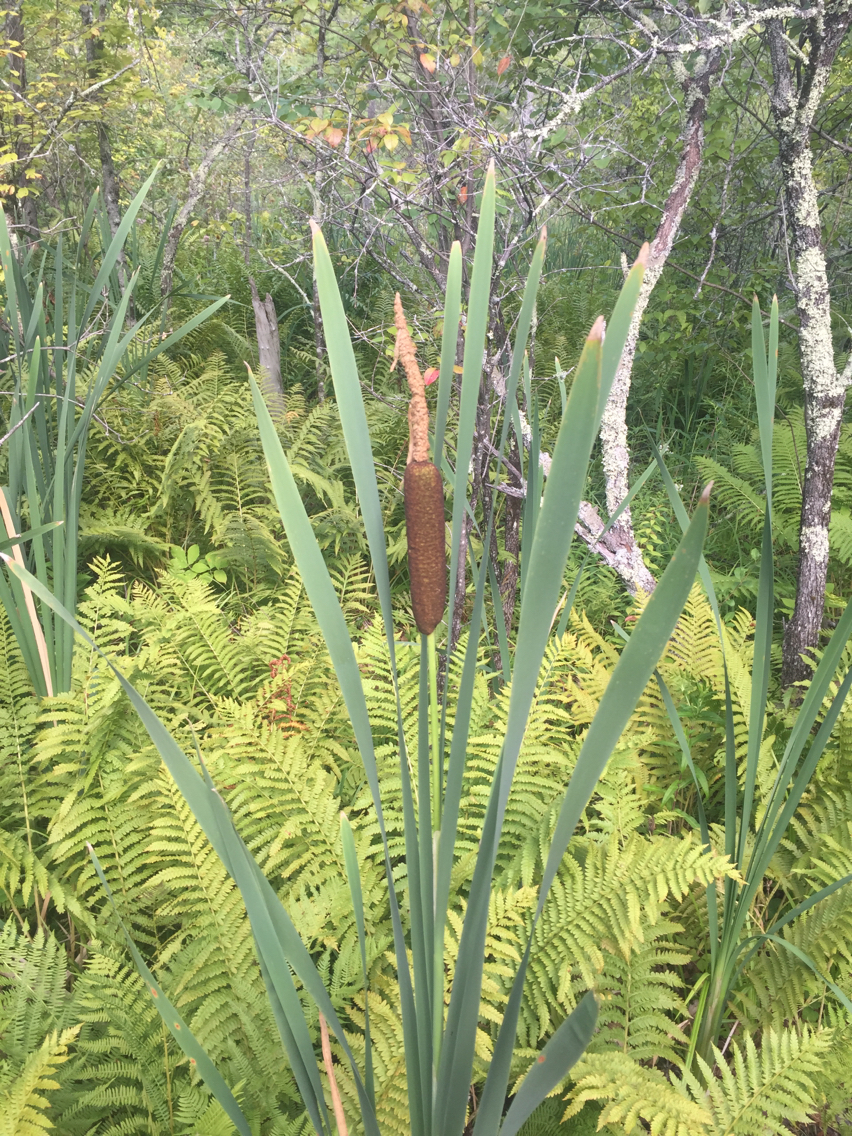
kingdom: Plantae
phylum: Tracheophyta
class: Liliopsida
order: Poales
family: Typhaceae
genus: Typha
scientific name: Typha latifolia
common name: Broadleaf cattail
